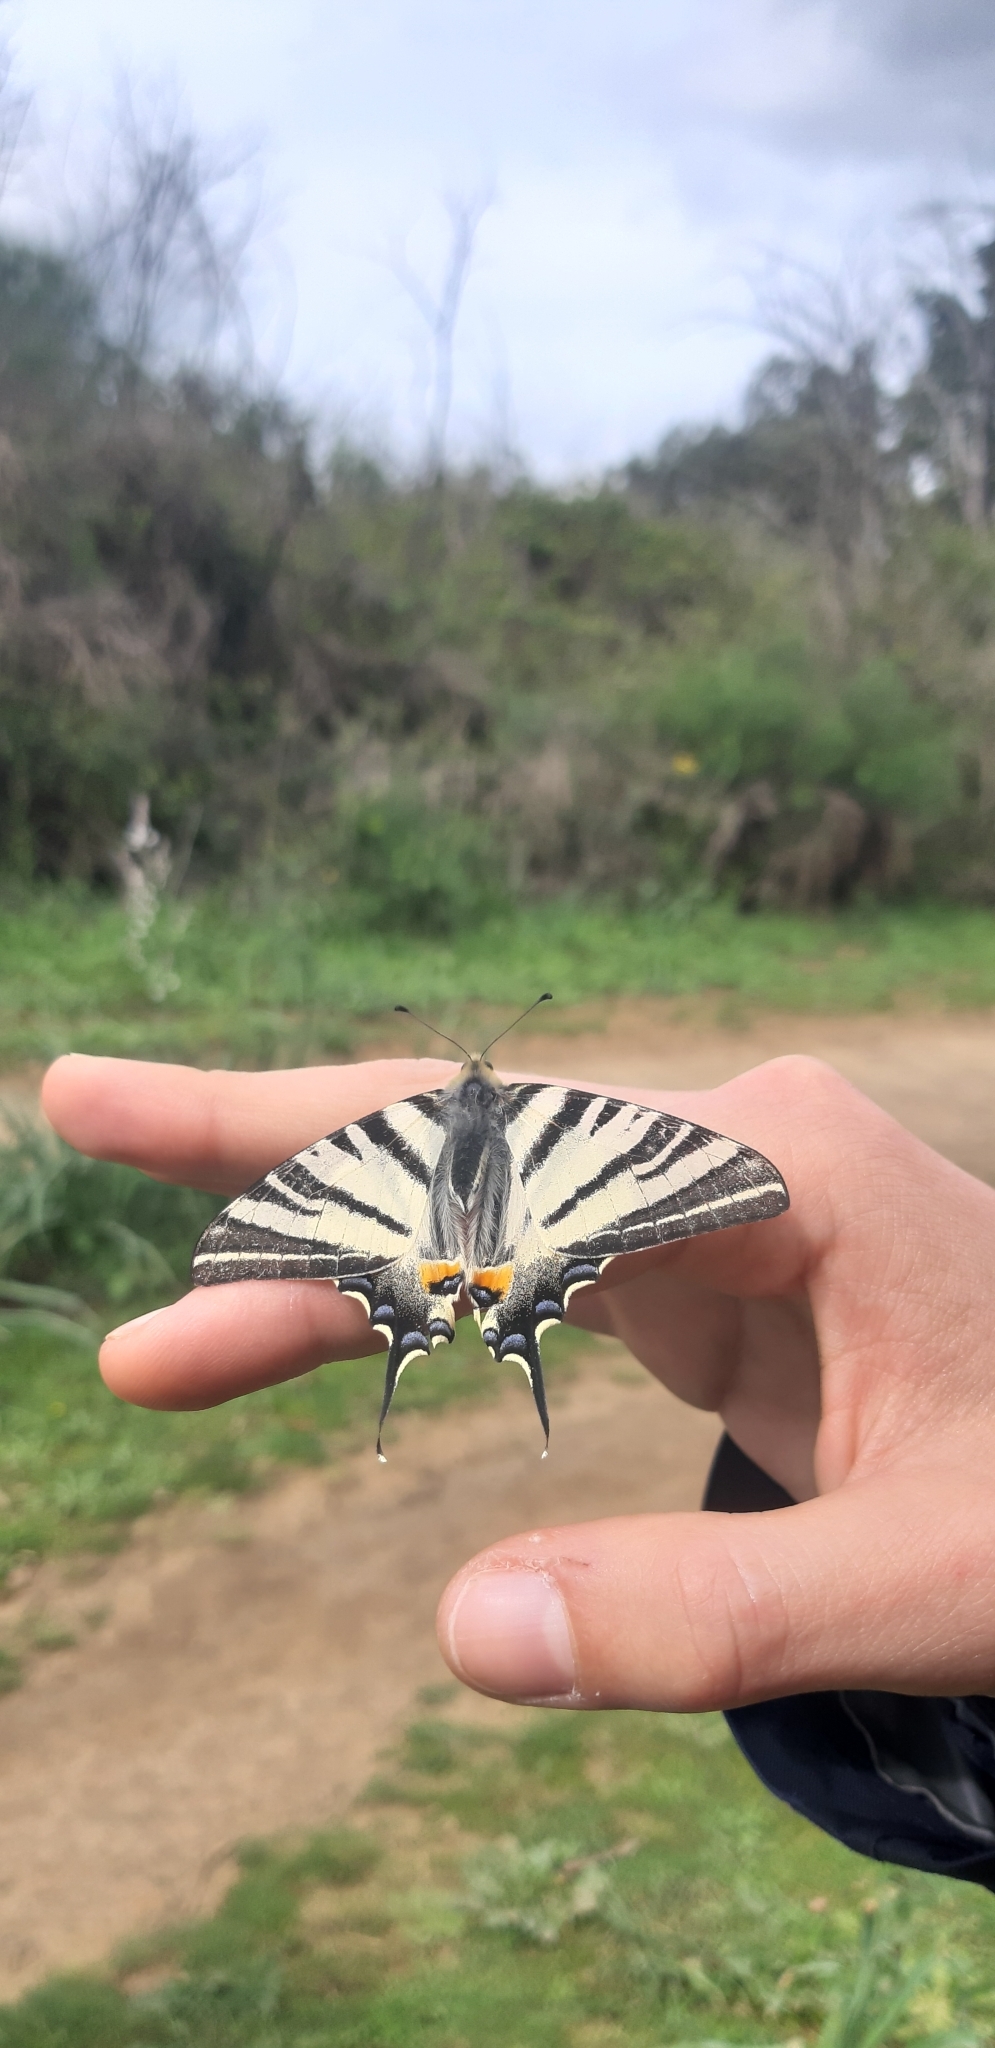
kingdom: Animalia
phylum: Arthropoda
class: Insecta
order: Lepidoptera
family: Papilionidae
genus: Iphiclides
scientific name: Iphiclides podalirius
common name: Scarce swallowtail
